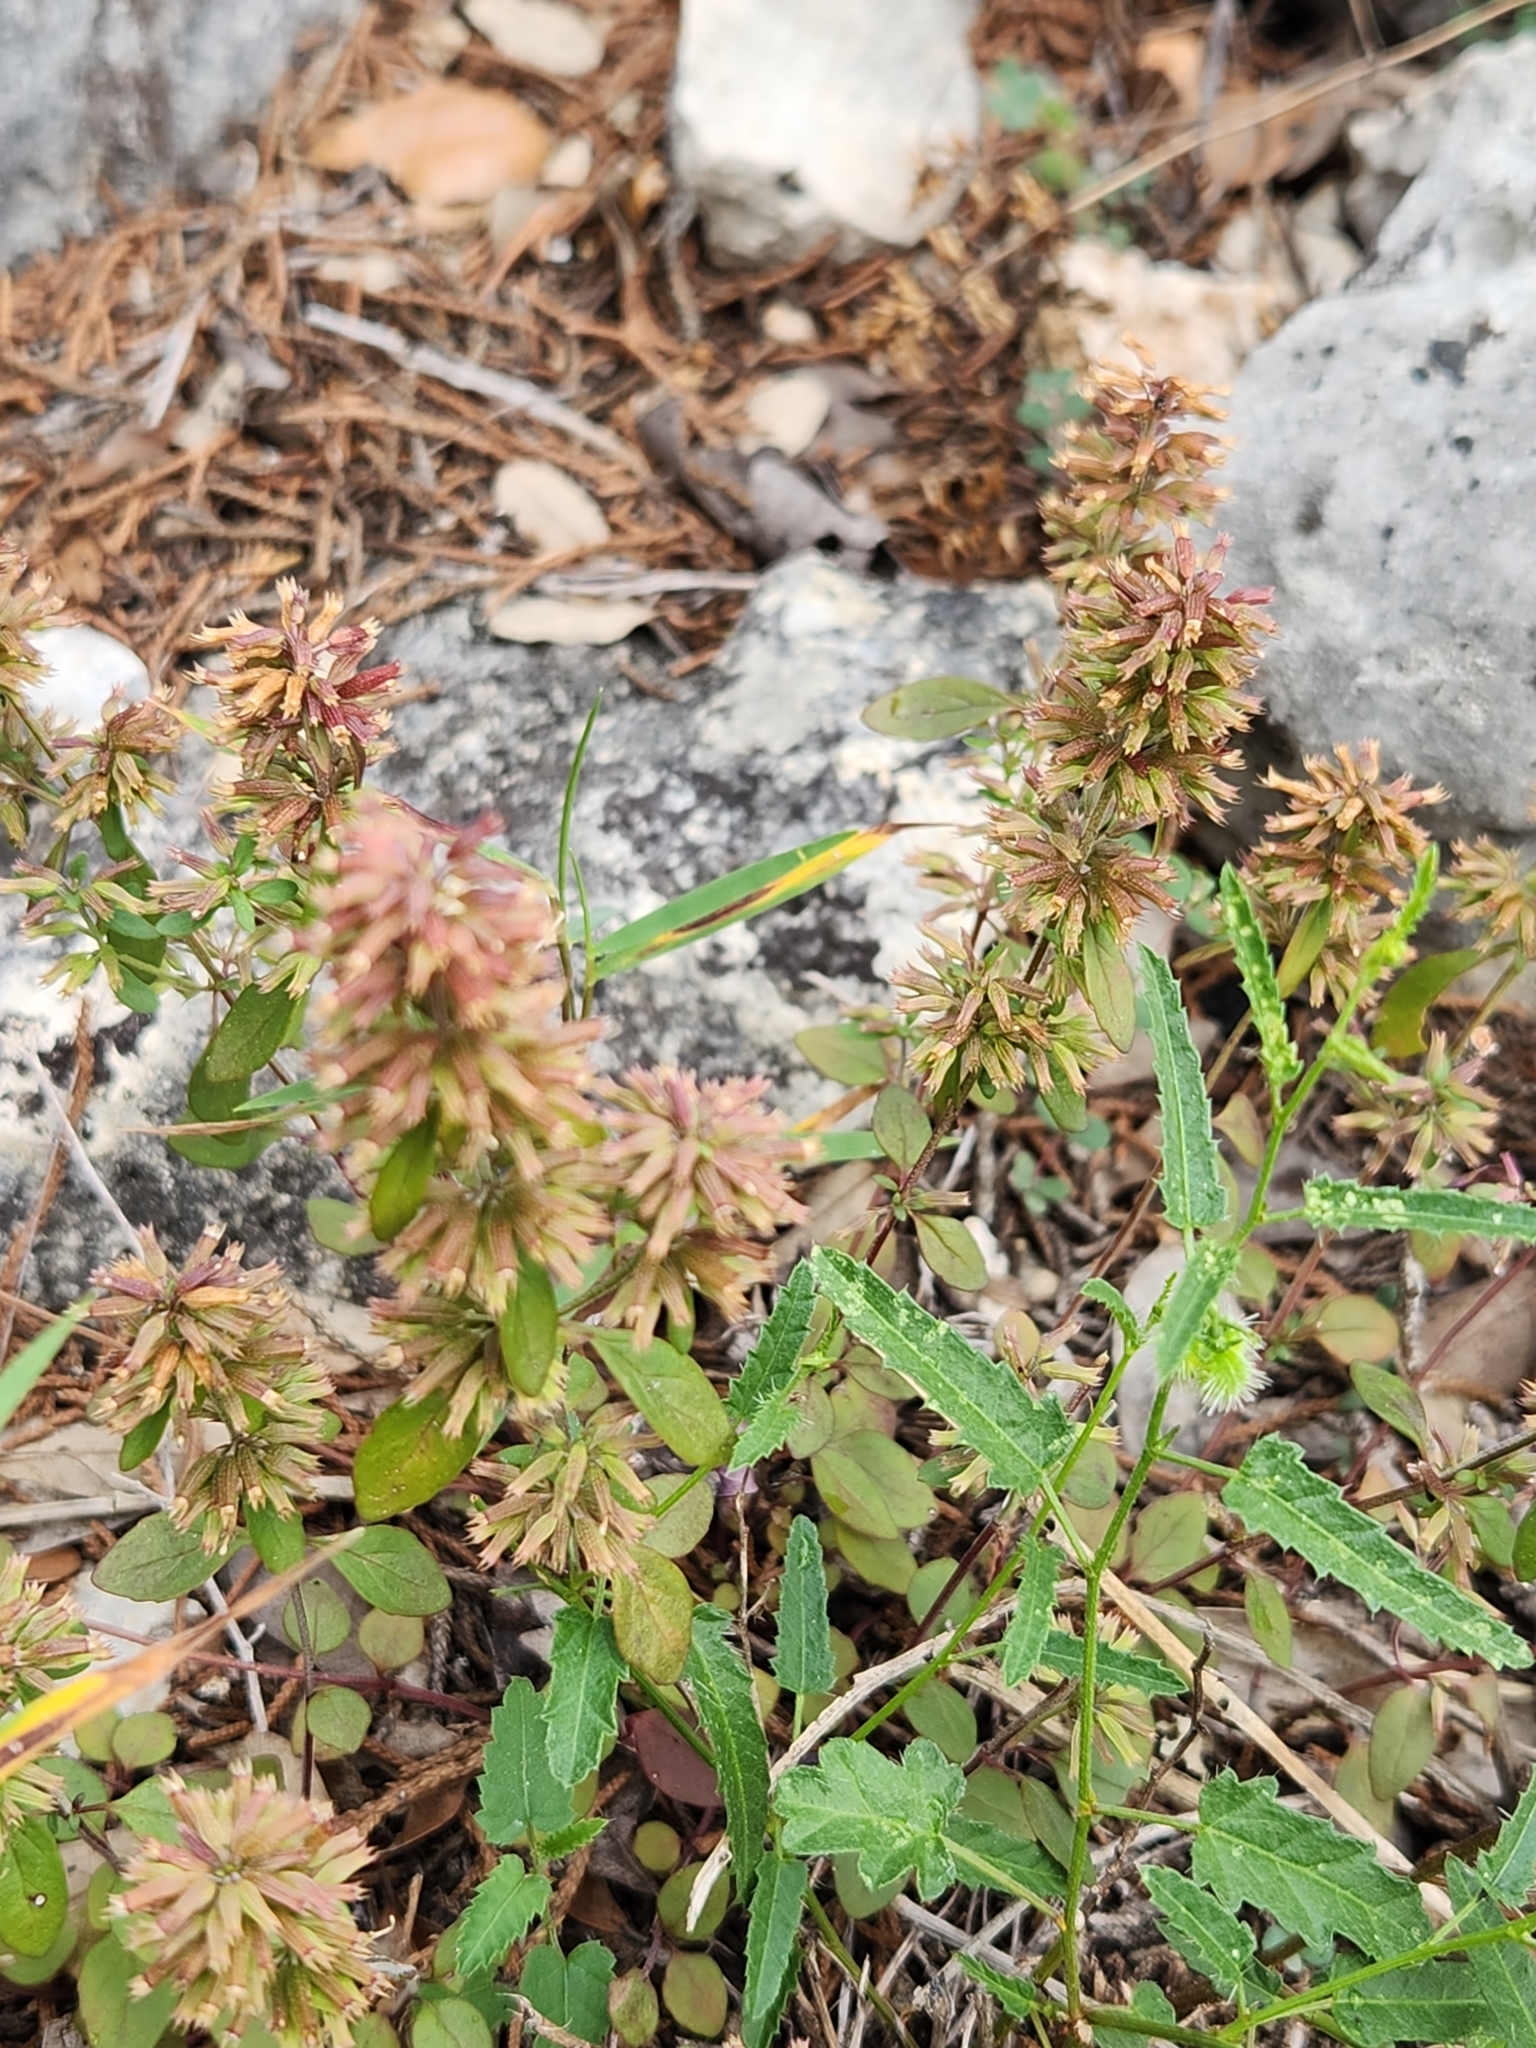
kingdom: Plantae
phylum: Tracheophyta
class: Magnoliopsida
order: Lamiales
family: Lamiaceae
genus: Hedeoma
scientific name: Hedeoma acinoides
